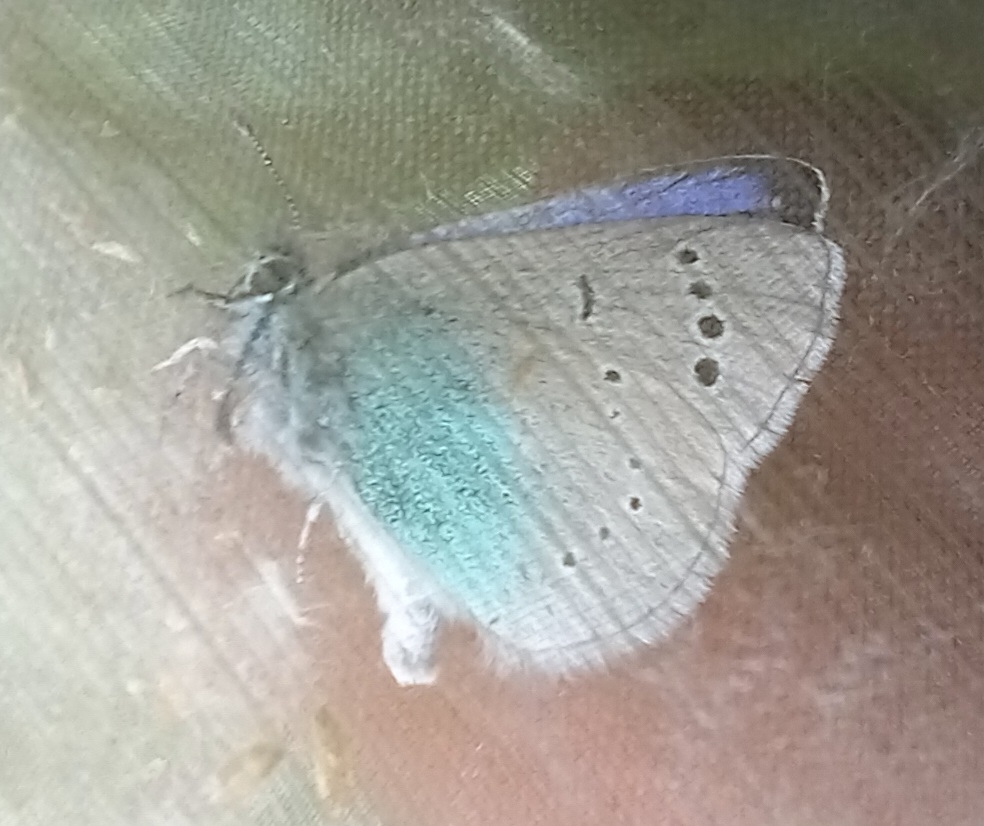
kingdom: Animalia
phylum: Arthropoda
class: Insecta
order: Lepidoptera
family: Lycaenidae
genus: Glaucopsyche
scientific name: Glaucopsyche alexis
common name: Green-underside blue
